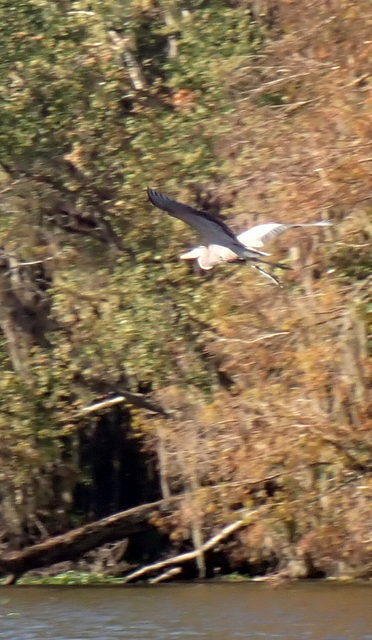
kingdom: Animalia
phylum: Chordata
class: Aves
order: Pelecaniformes
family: Ardeidae
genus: Ardea
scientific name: Ardea herodias
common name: Great blue heron
